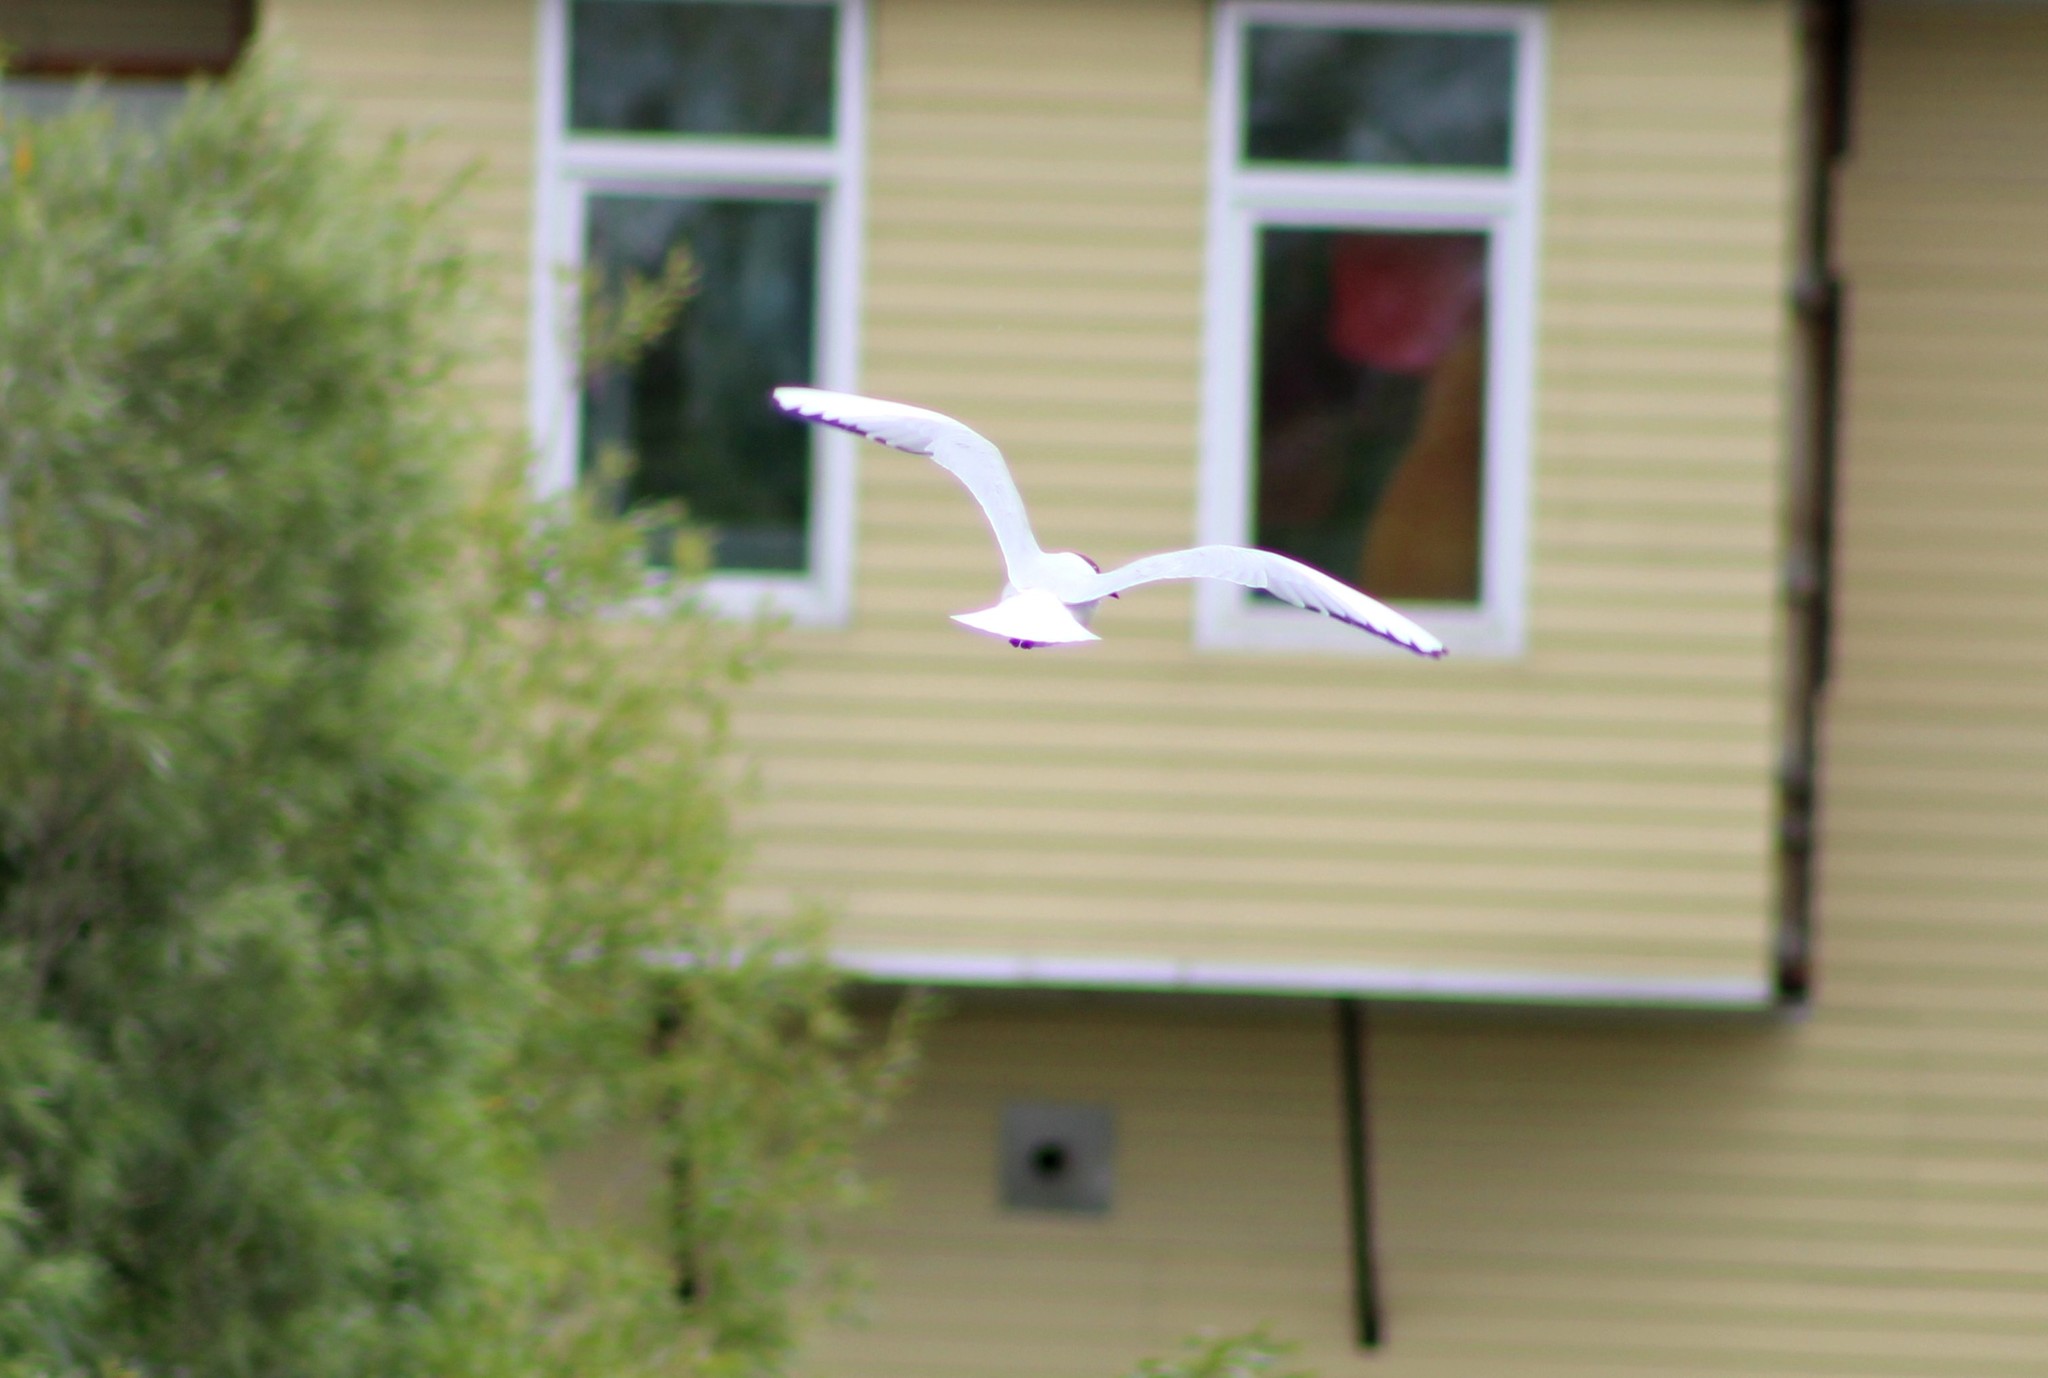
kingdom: Animalia
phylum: Chordata
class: Aves
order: Charadriiformes
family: Laridae
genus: Chroicocephalus
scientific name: Chroicocephalus ridibundus
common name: Black-headed gull
